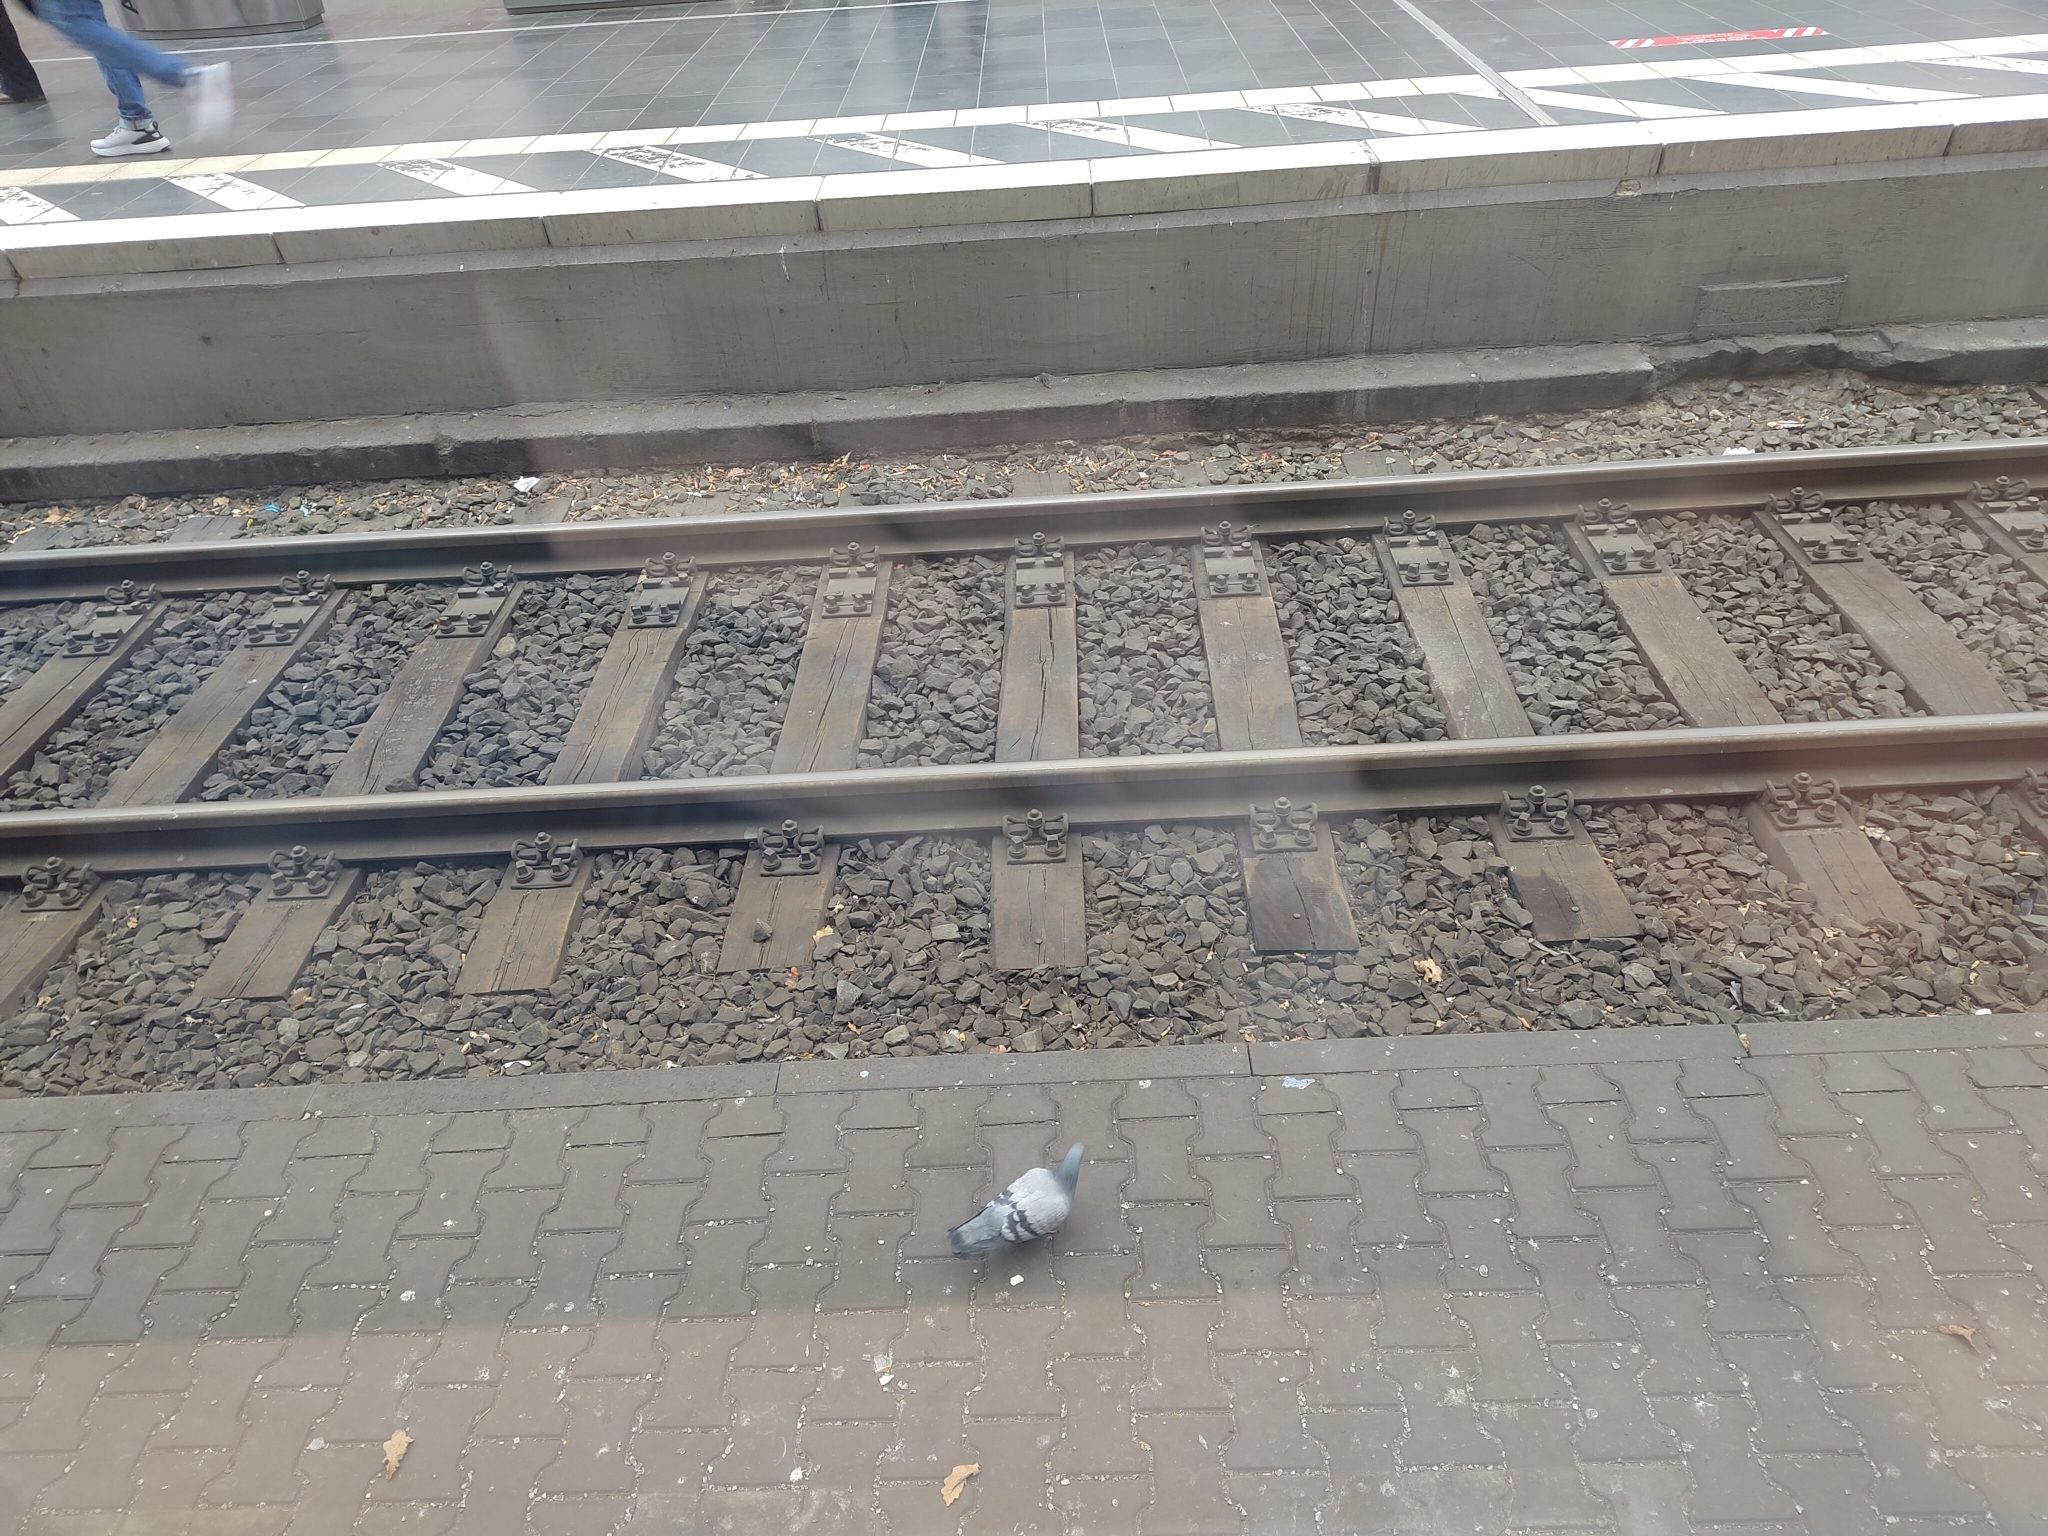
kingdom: Animalia
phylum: Chordata
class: Aves
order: Columbiformes
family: Columbidae
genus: Columba
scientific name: Columba livia
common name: Rock pigeon
